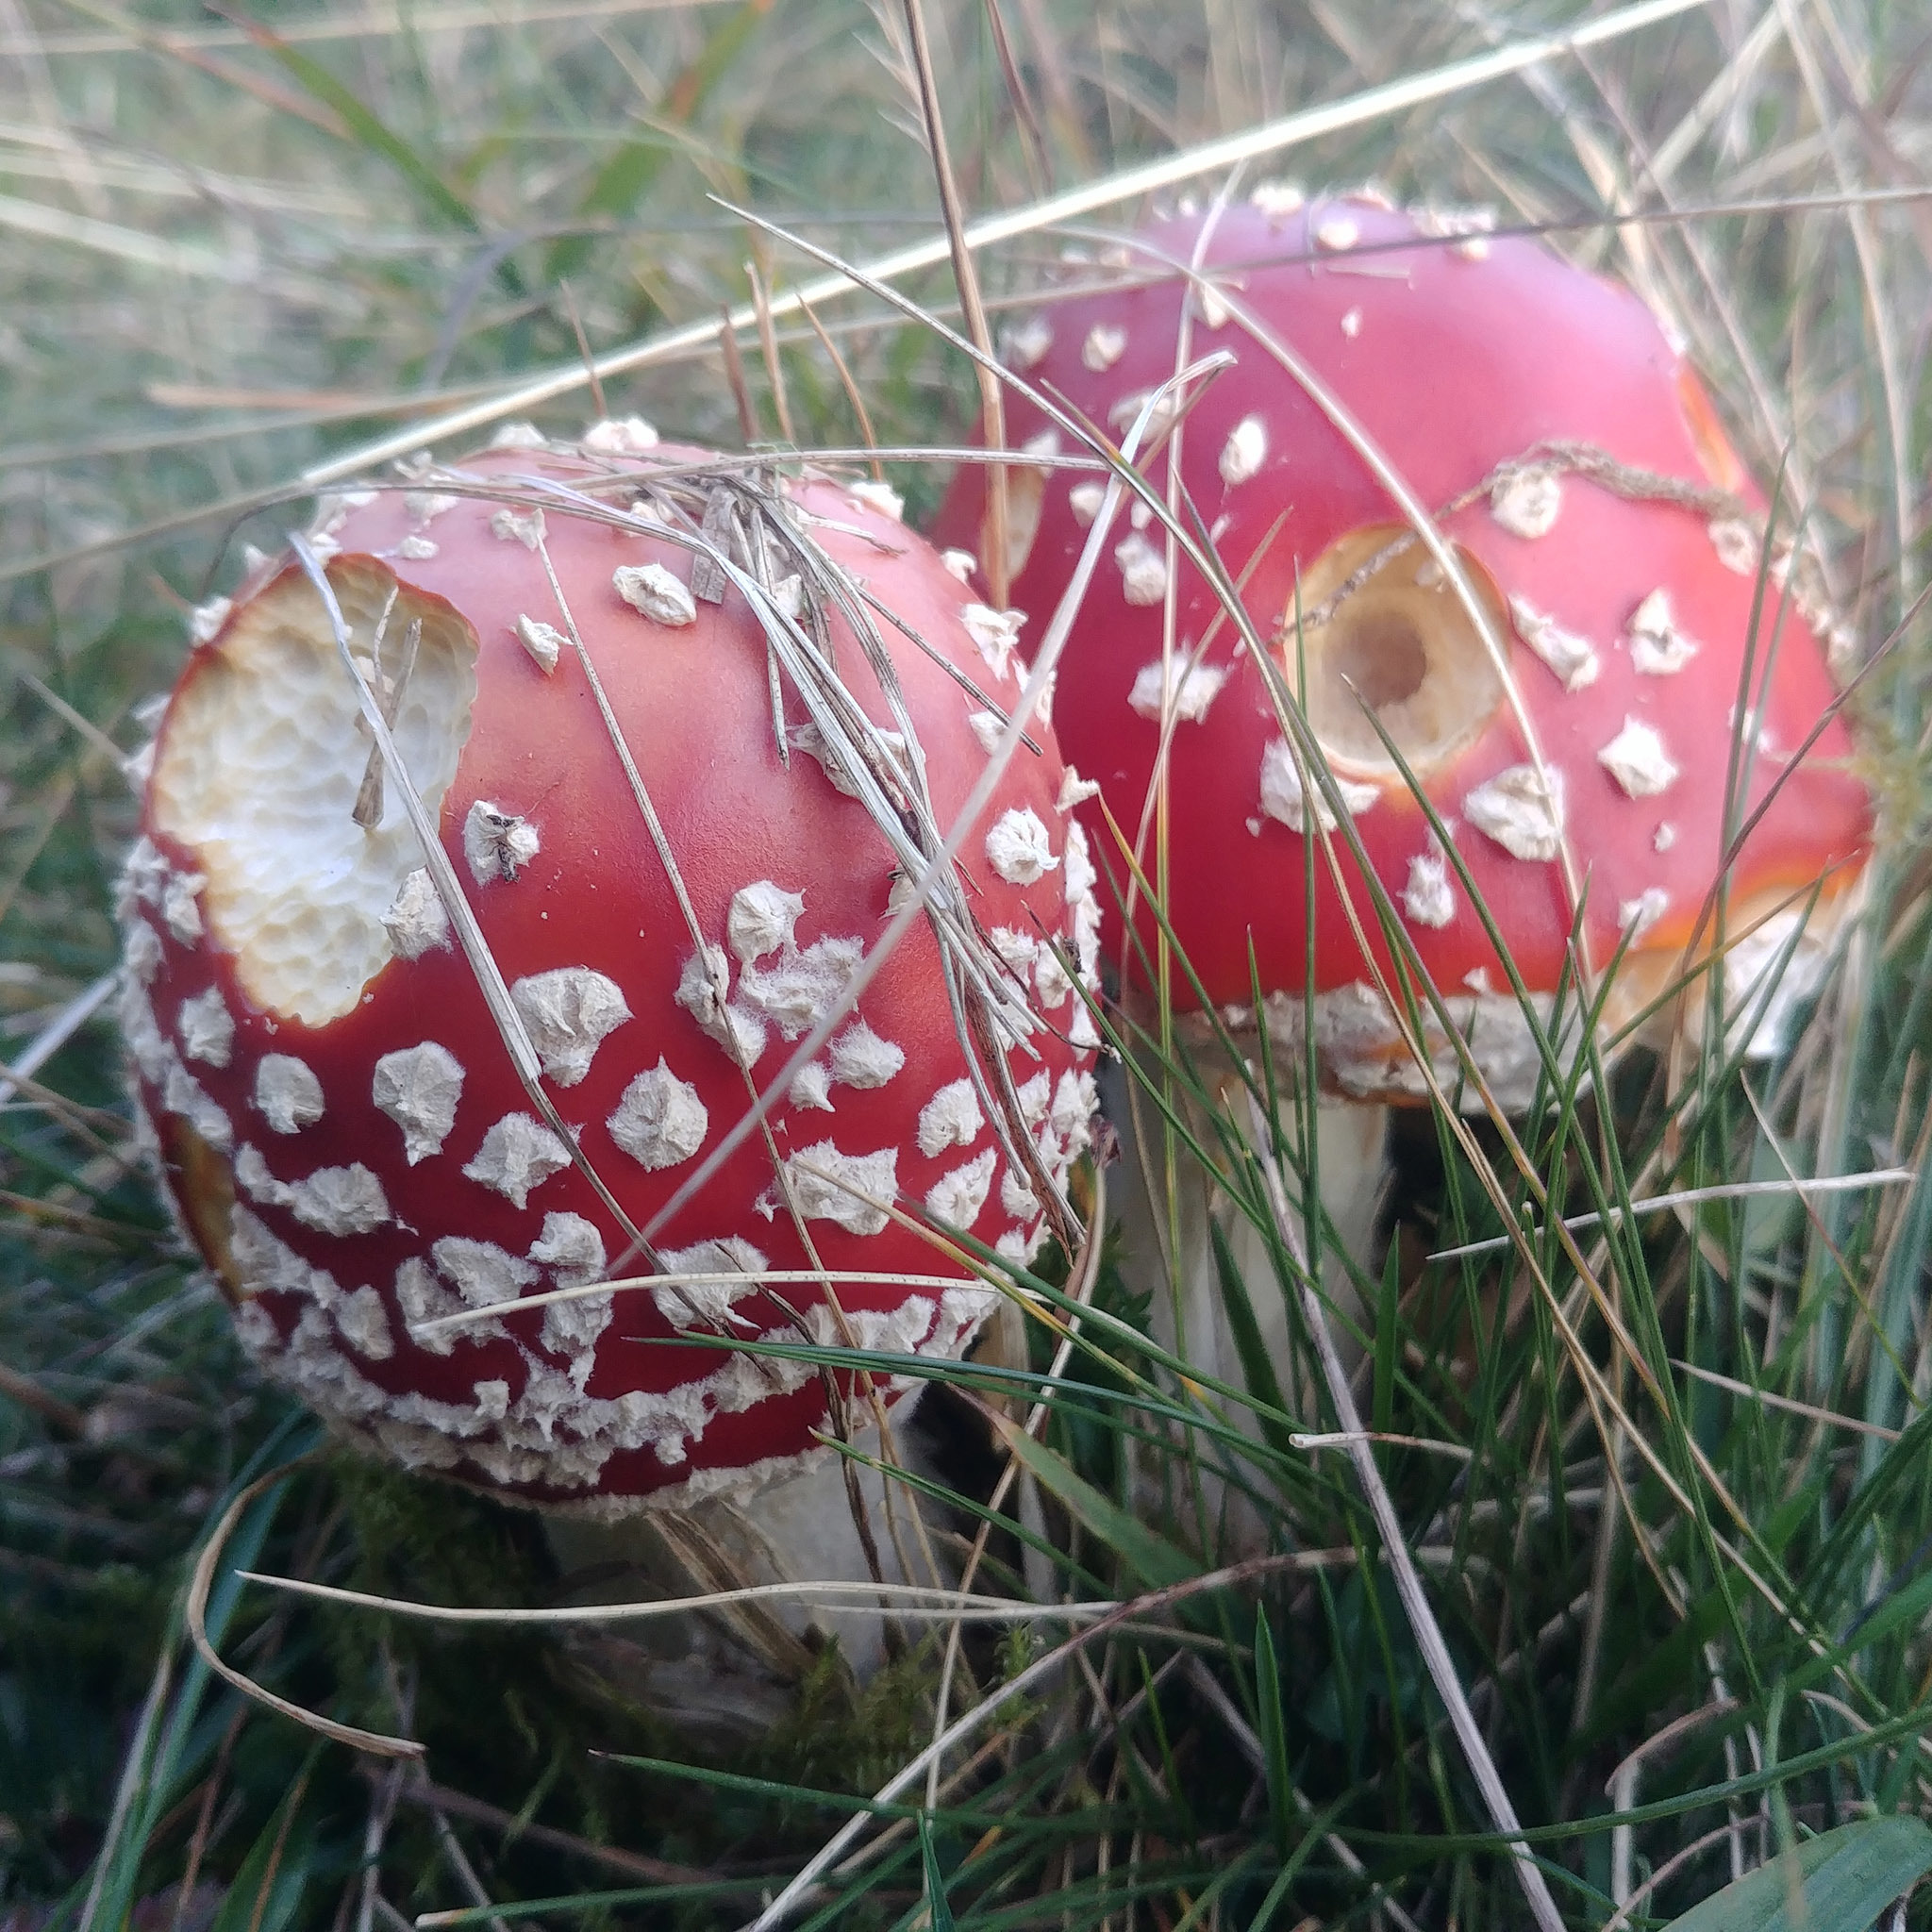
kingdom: Fungi
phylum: Basidiomycota
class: Agaricomycetes
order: Agaricales
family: Amanitaceae
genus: Amanita
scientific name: Amanita muscaria
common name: Fly agaric
